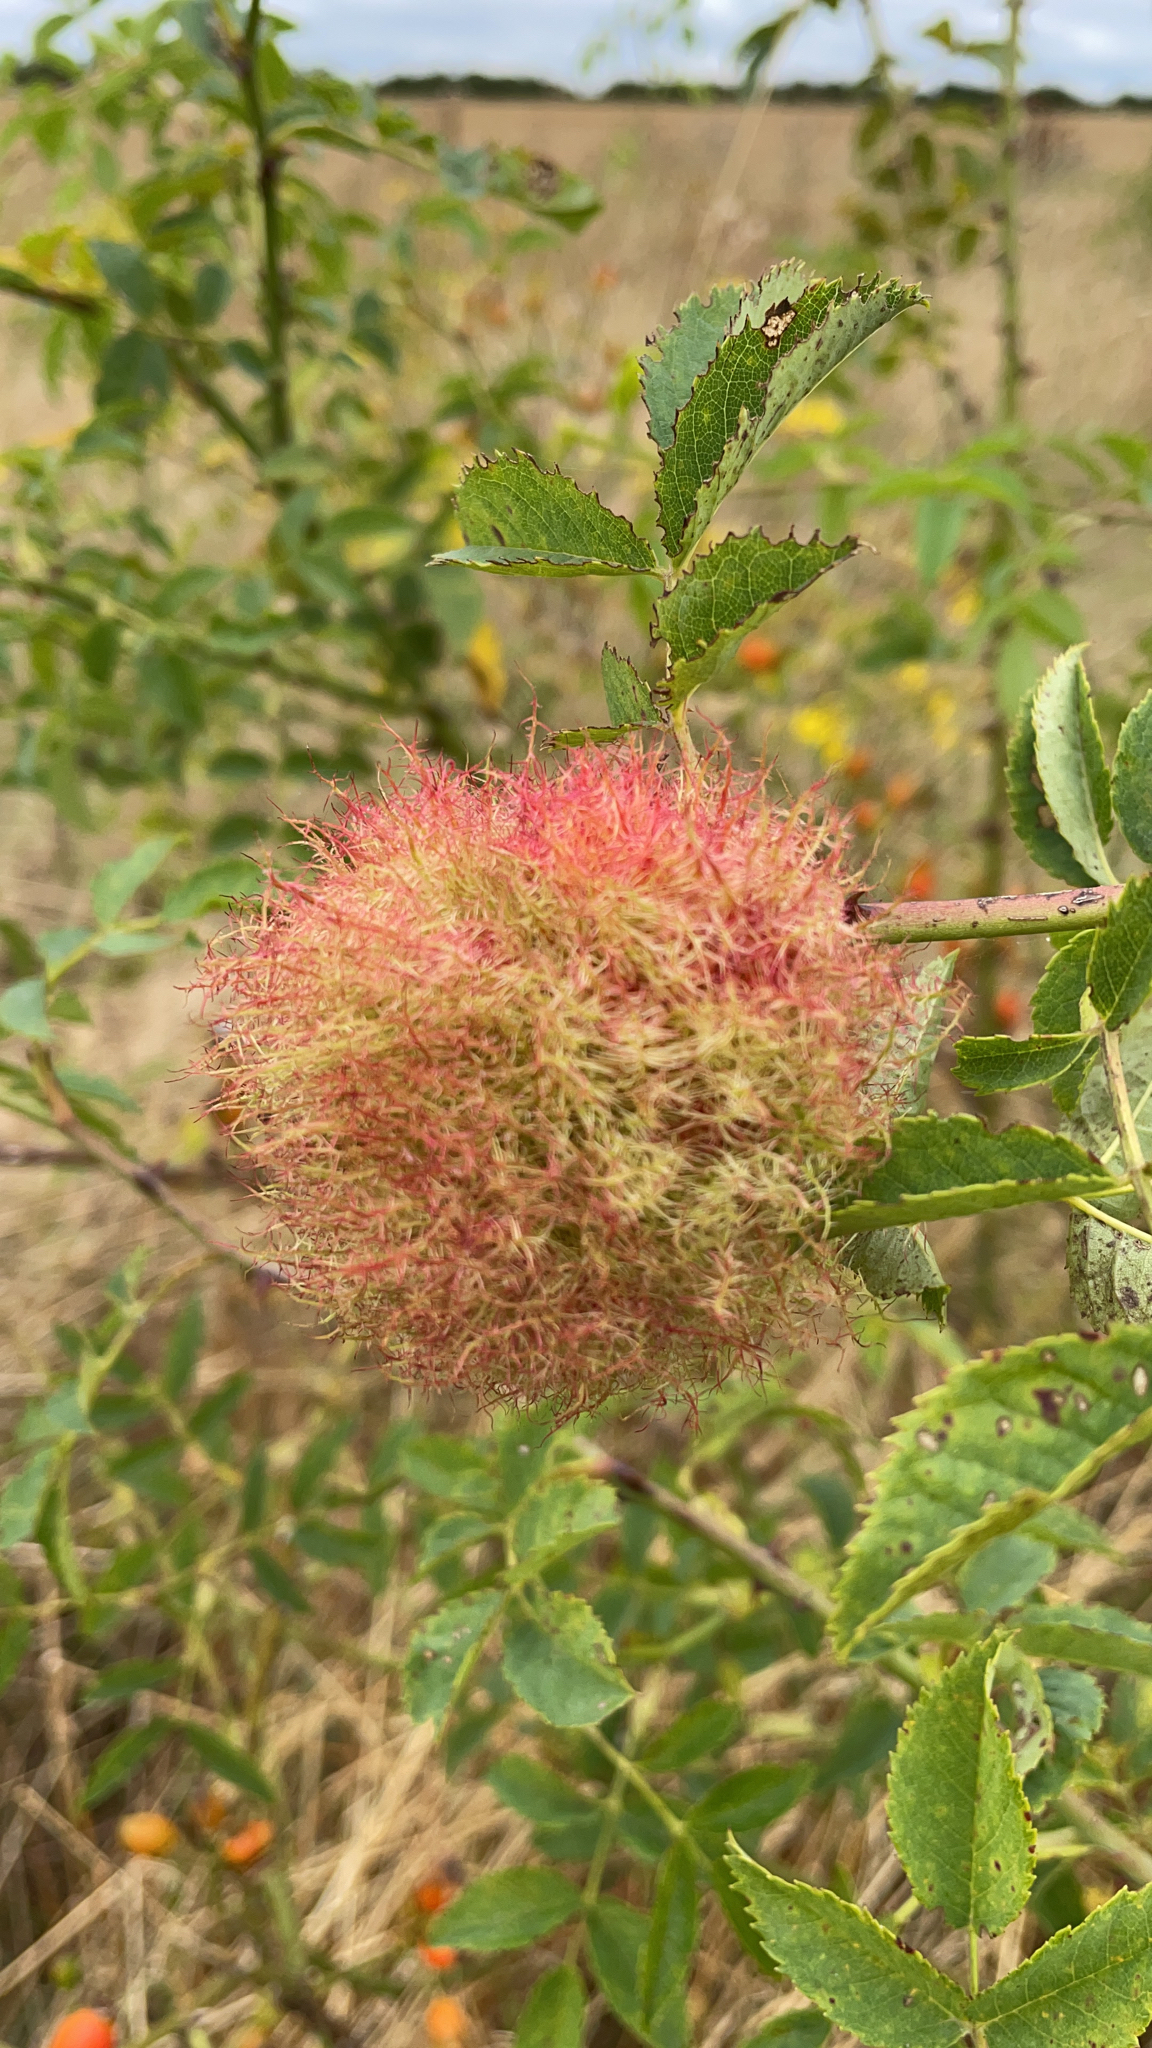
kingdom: Animalia
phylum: Arthropoda
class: Insecta
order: Hymenoptera
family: Cynipidae
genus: Diplolepis
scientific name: Diplolepis rosae
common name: Bedeguar gall
